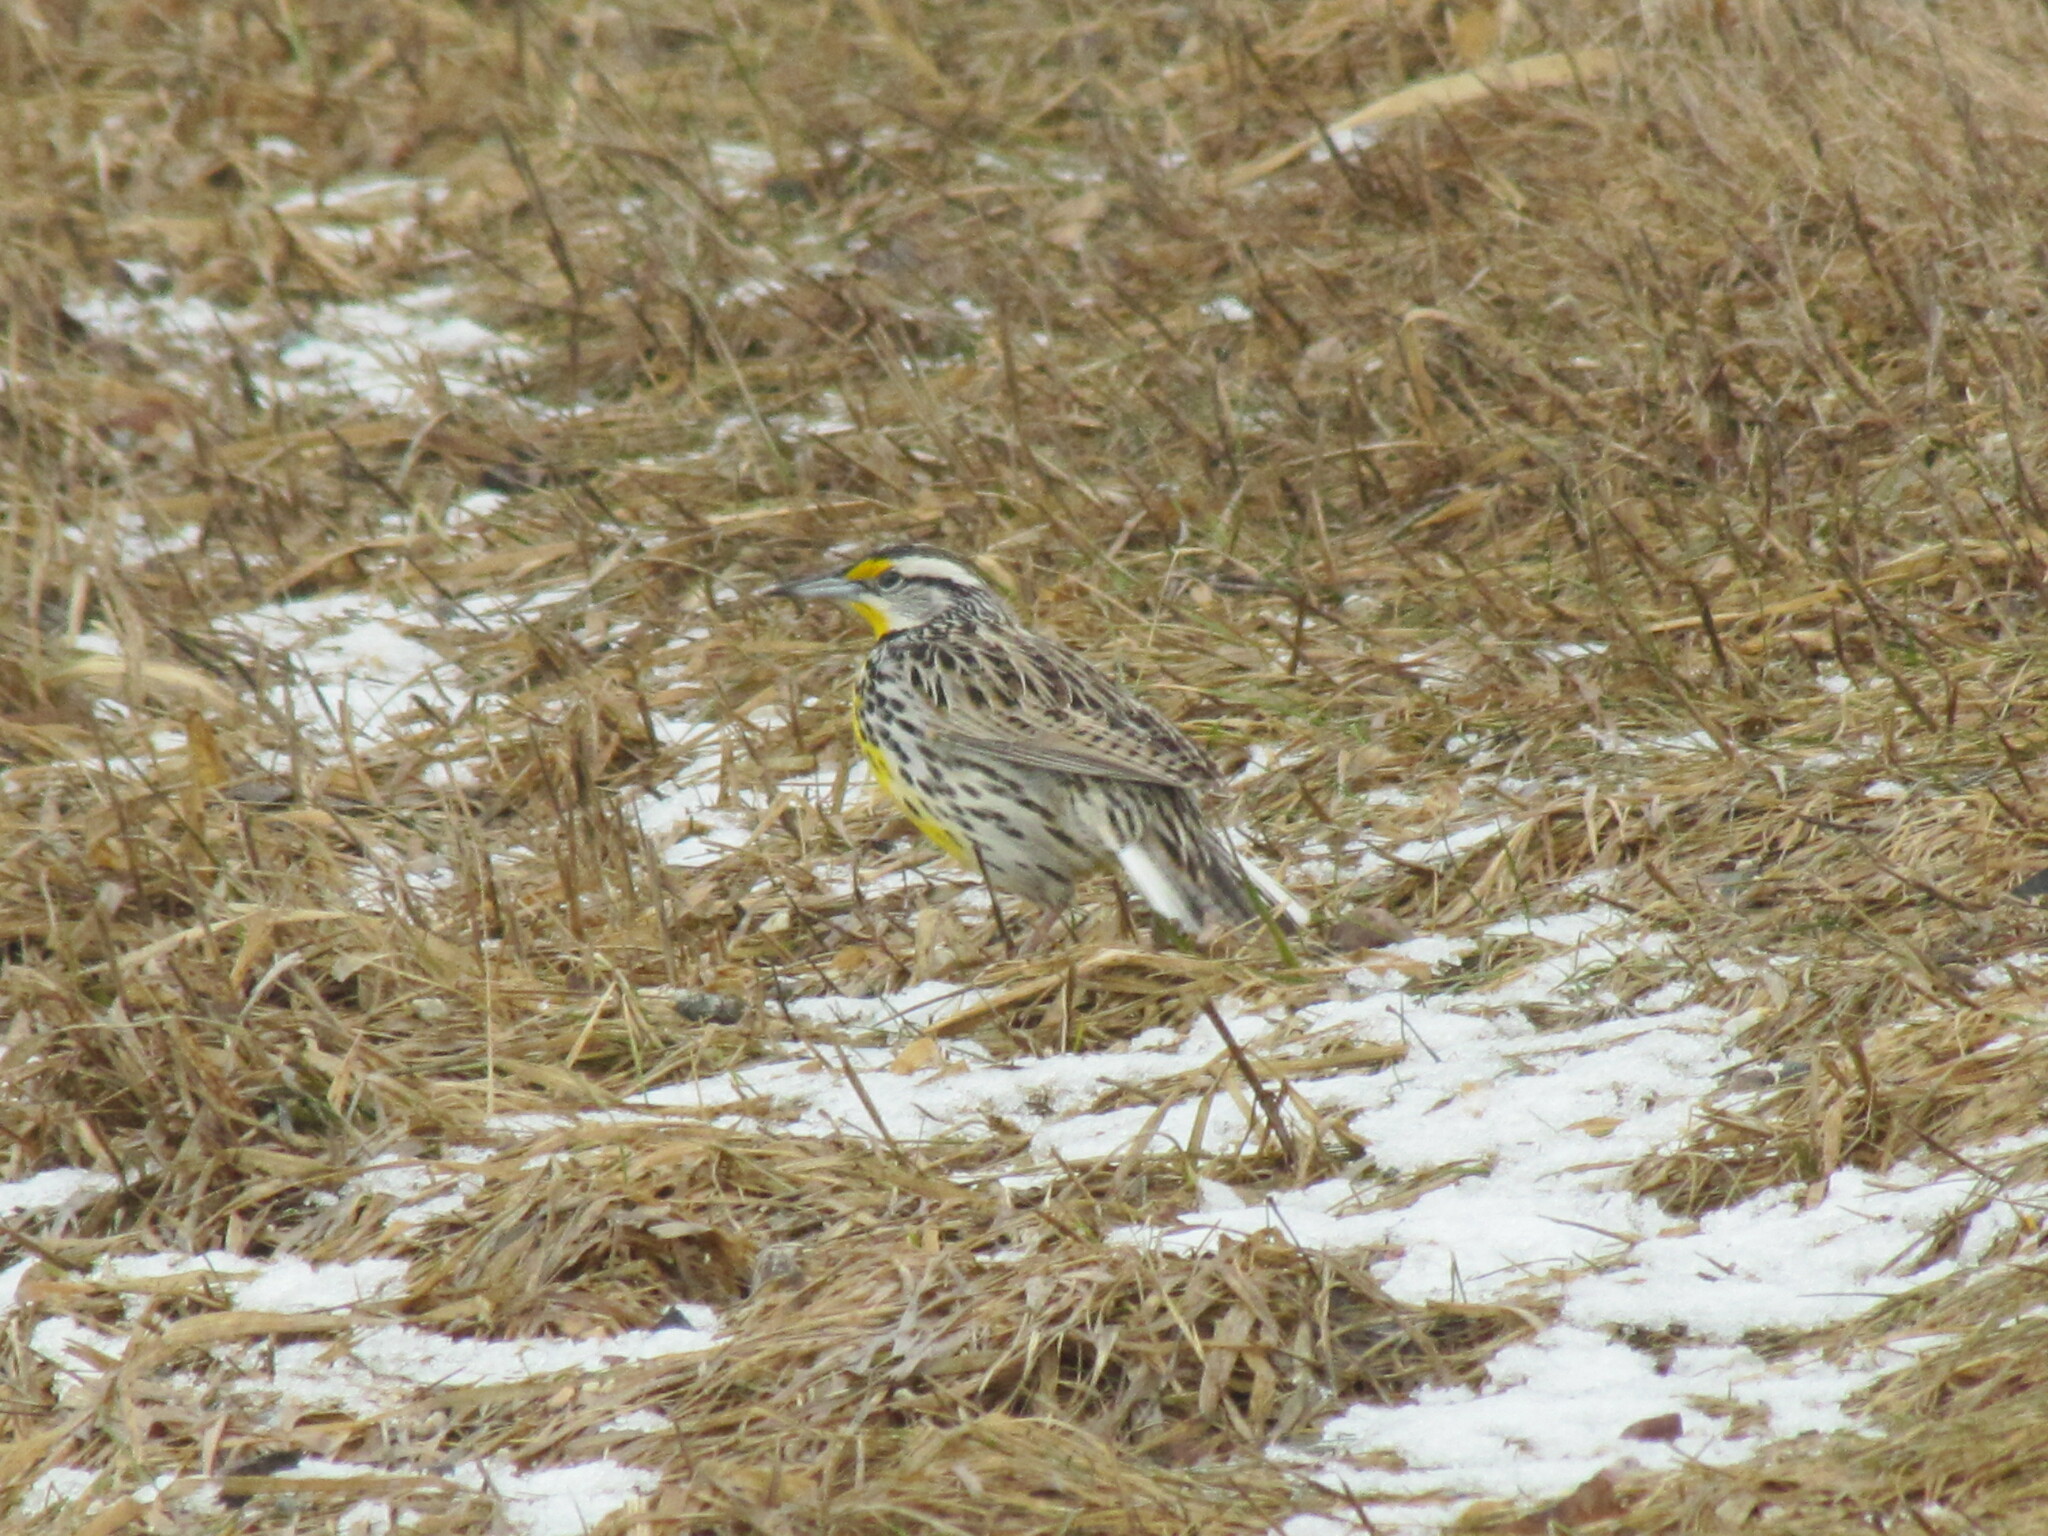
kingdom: Animalia
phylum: Chordata
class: Aves
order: Passeriformes
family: Icteridae
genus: Sturnella
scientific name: Sturnella magna
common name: Eastern meadowlark
